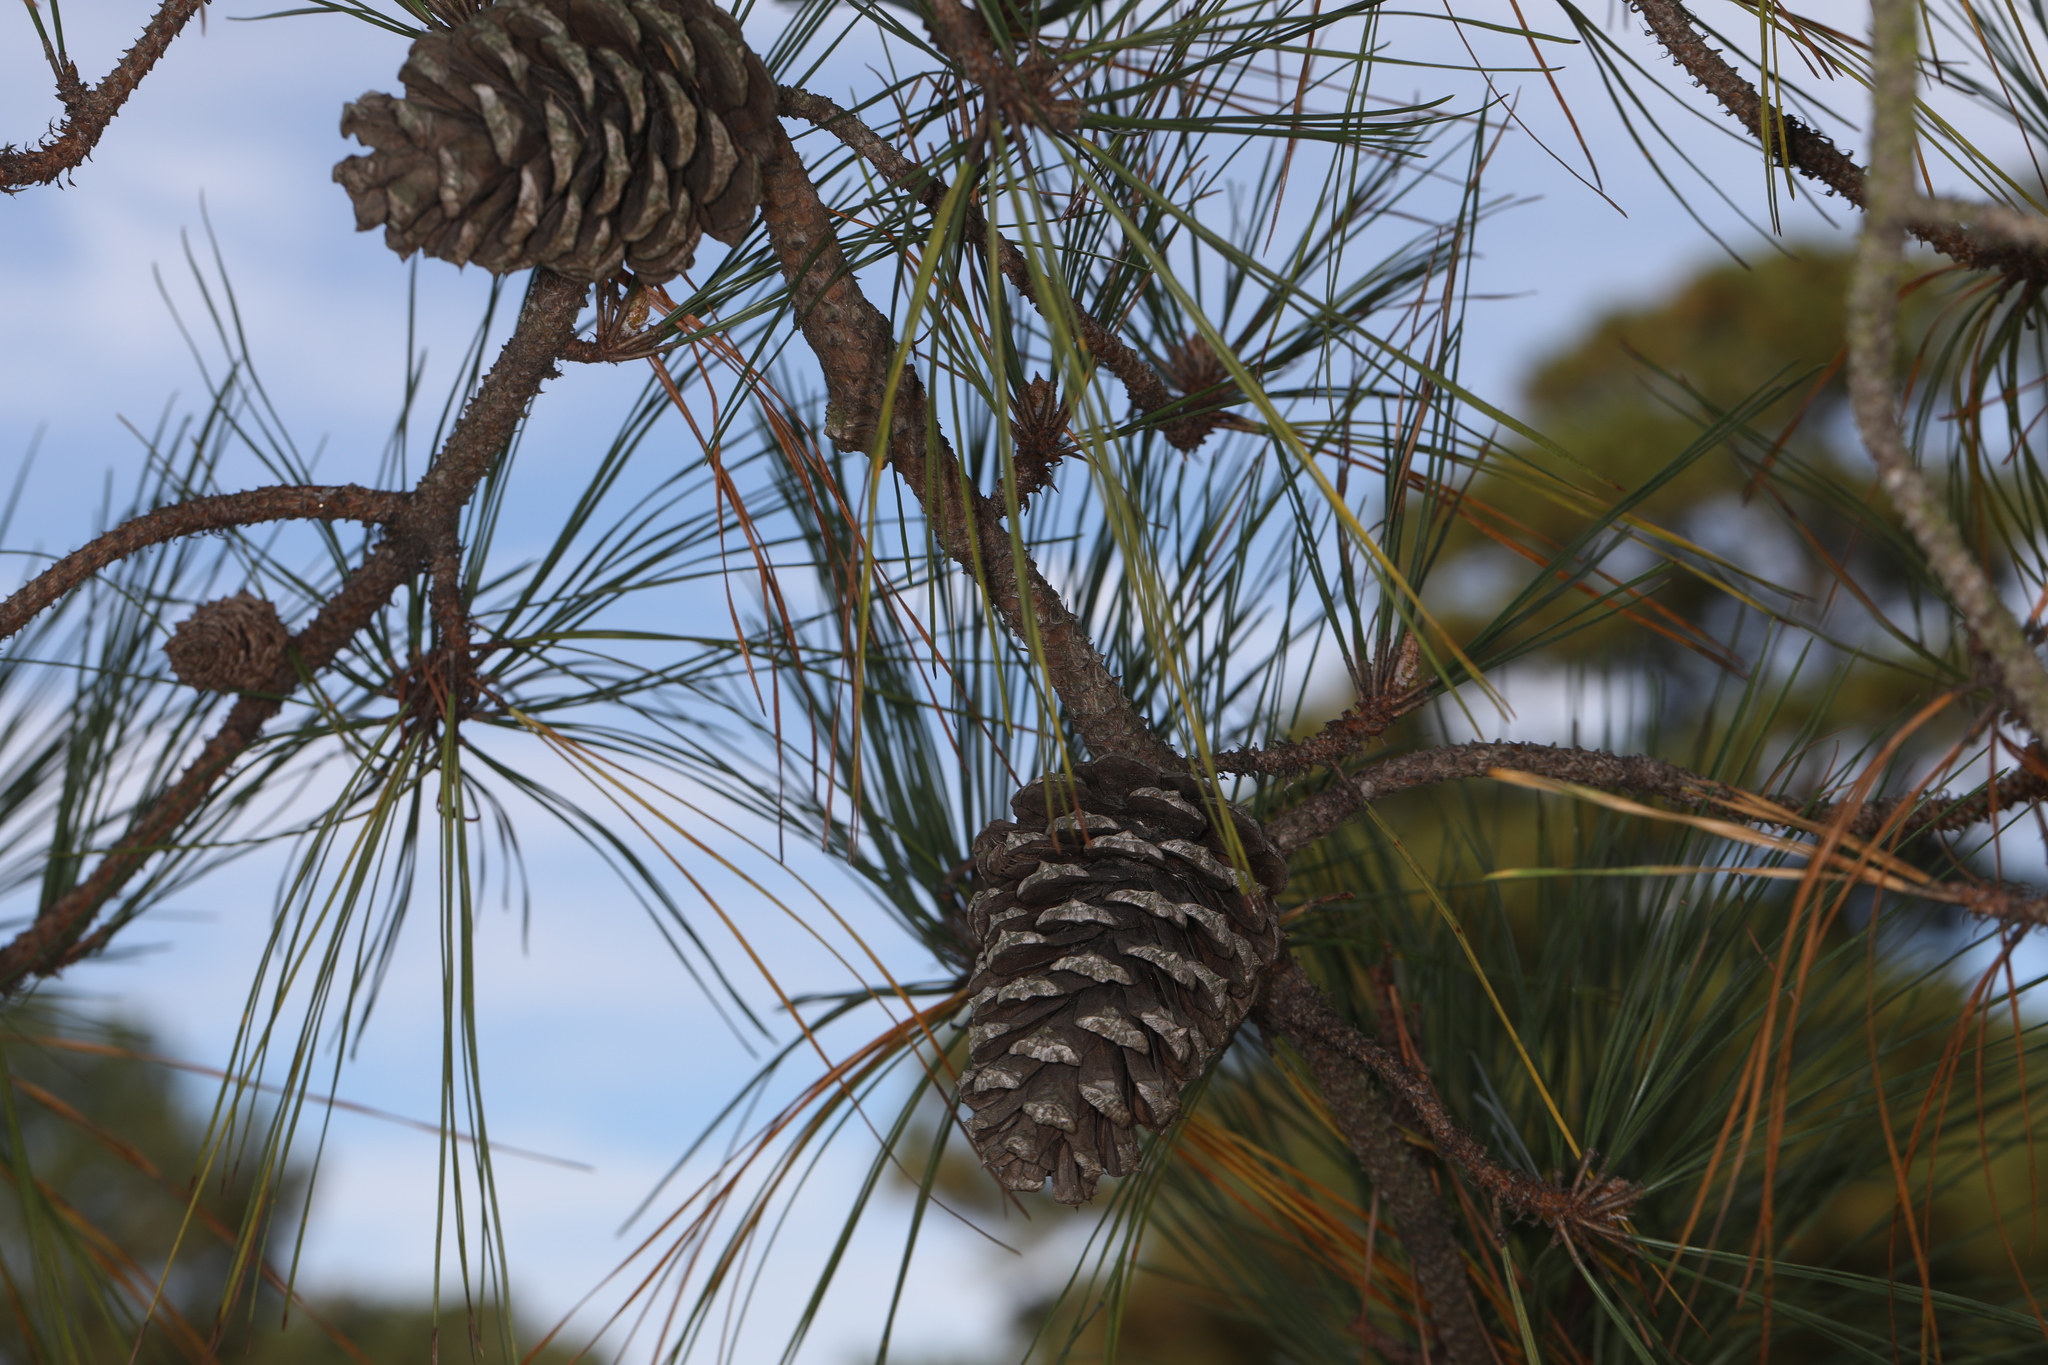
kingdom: Plantae
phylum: Tracheophyta
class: Pinopsida
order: Pinales
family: Pinaceae
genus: Pinus
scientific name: Pinus taeda
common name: Loblolly pine
